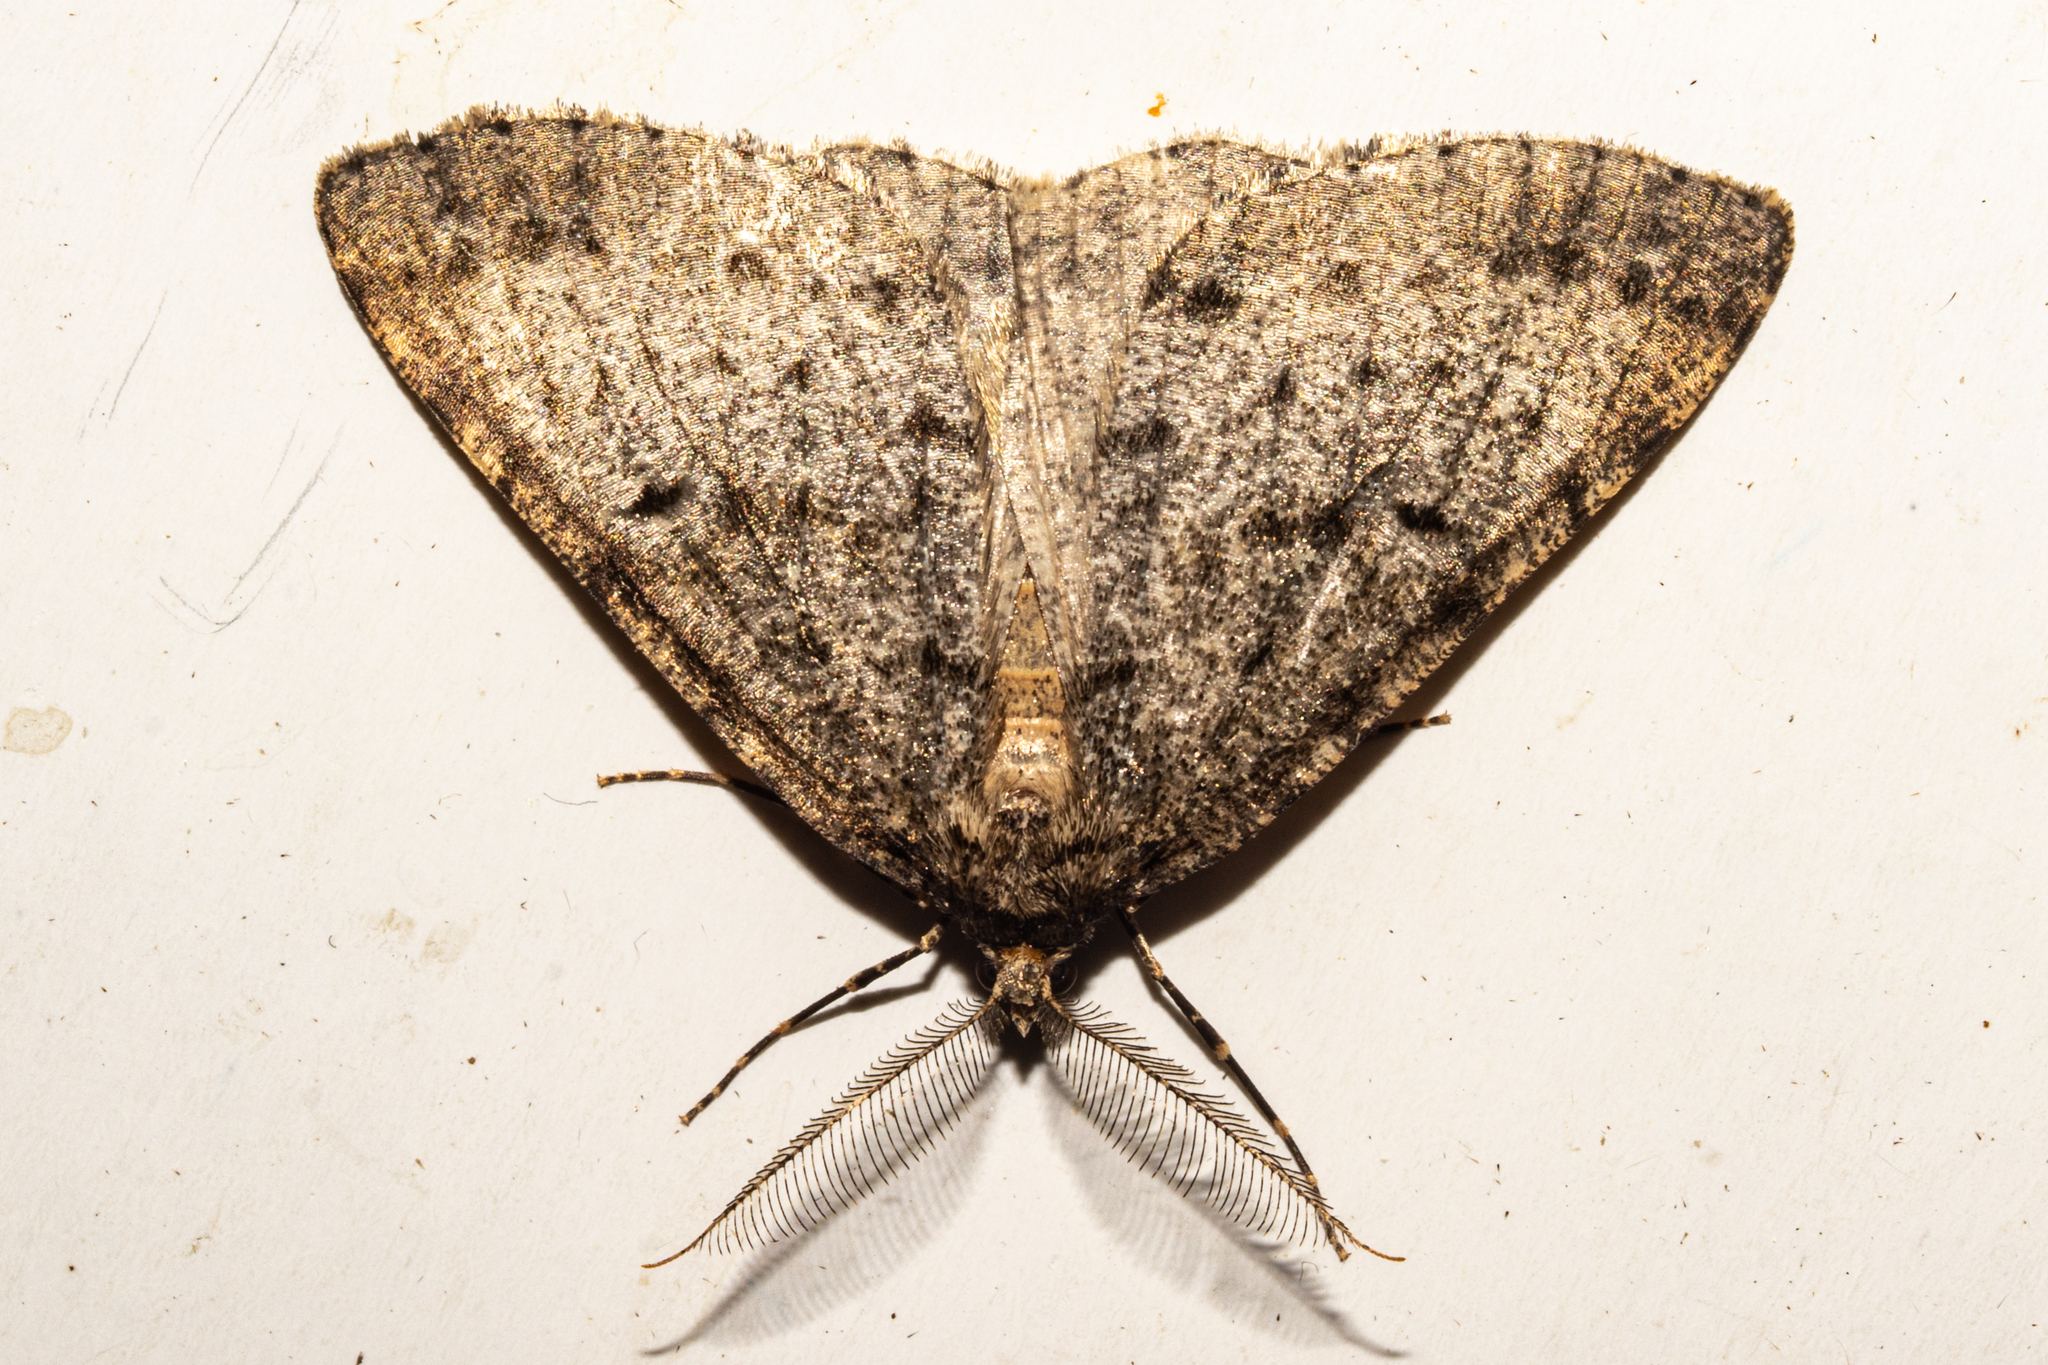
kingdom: Animalia
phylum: Arthropoda
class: Insecta
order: Lepidoptera
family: Geometridae
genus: Pseudocoremia
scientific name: Pseudocoremia terrena
